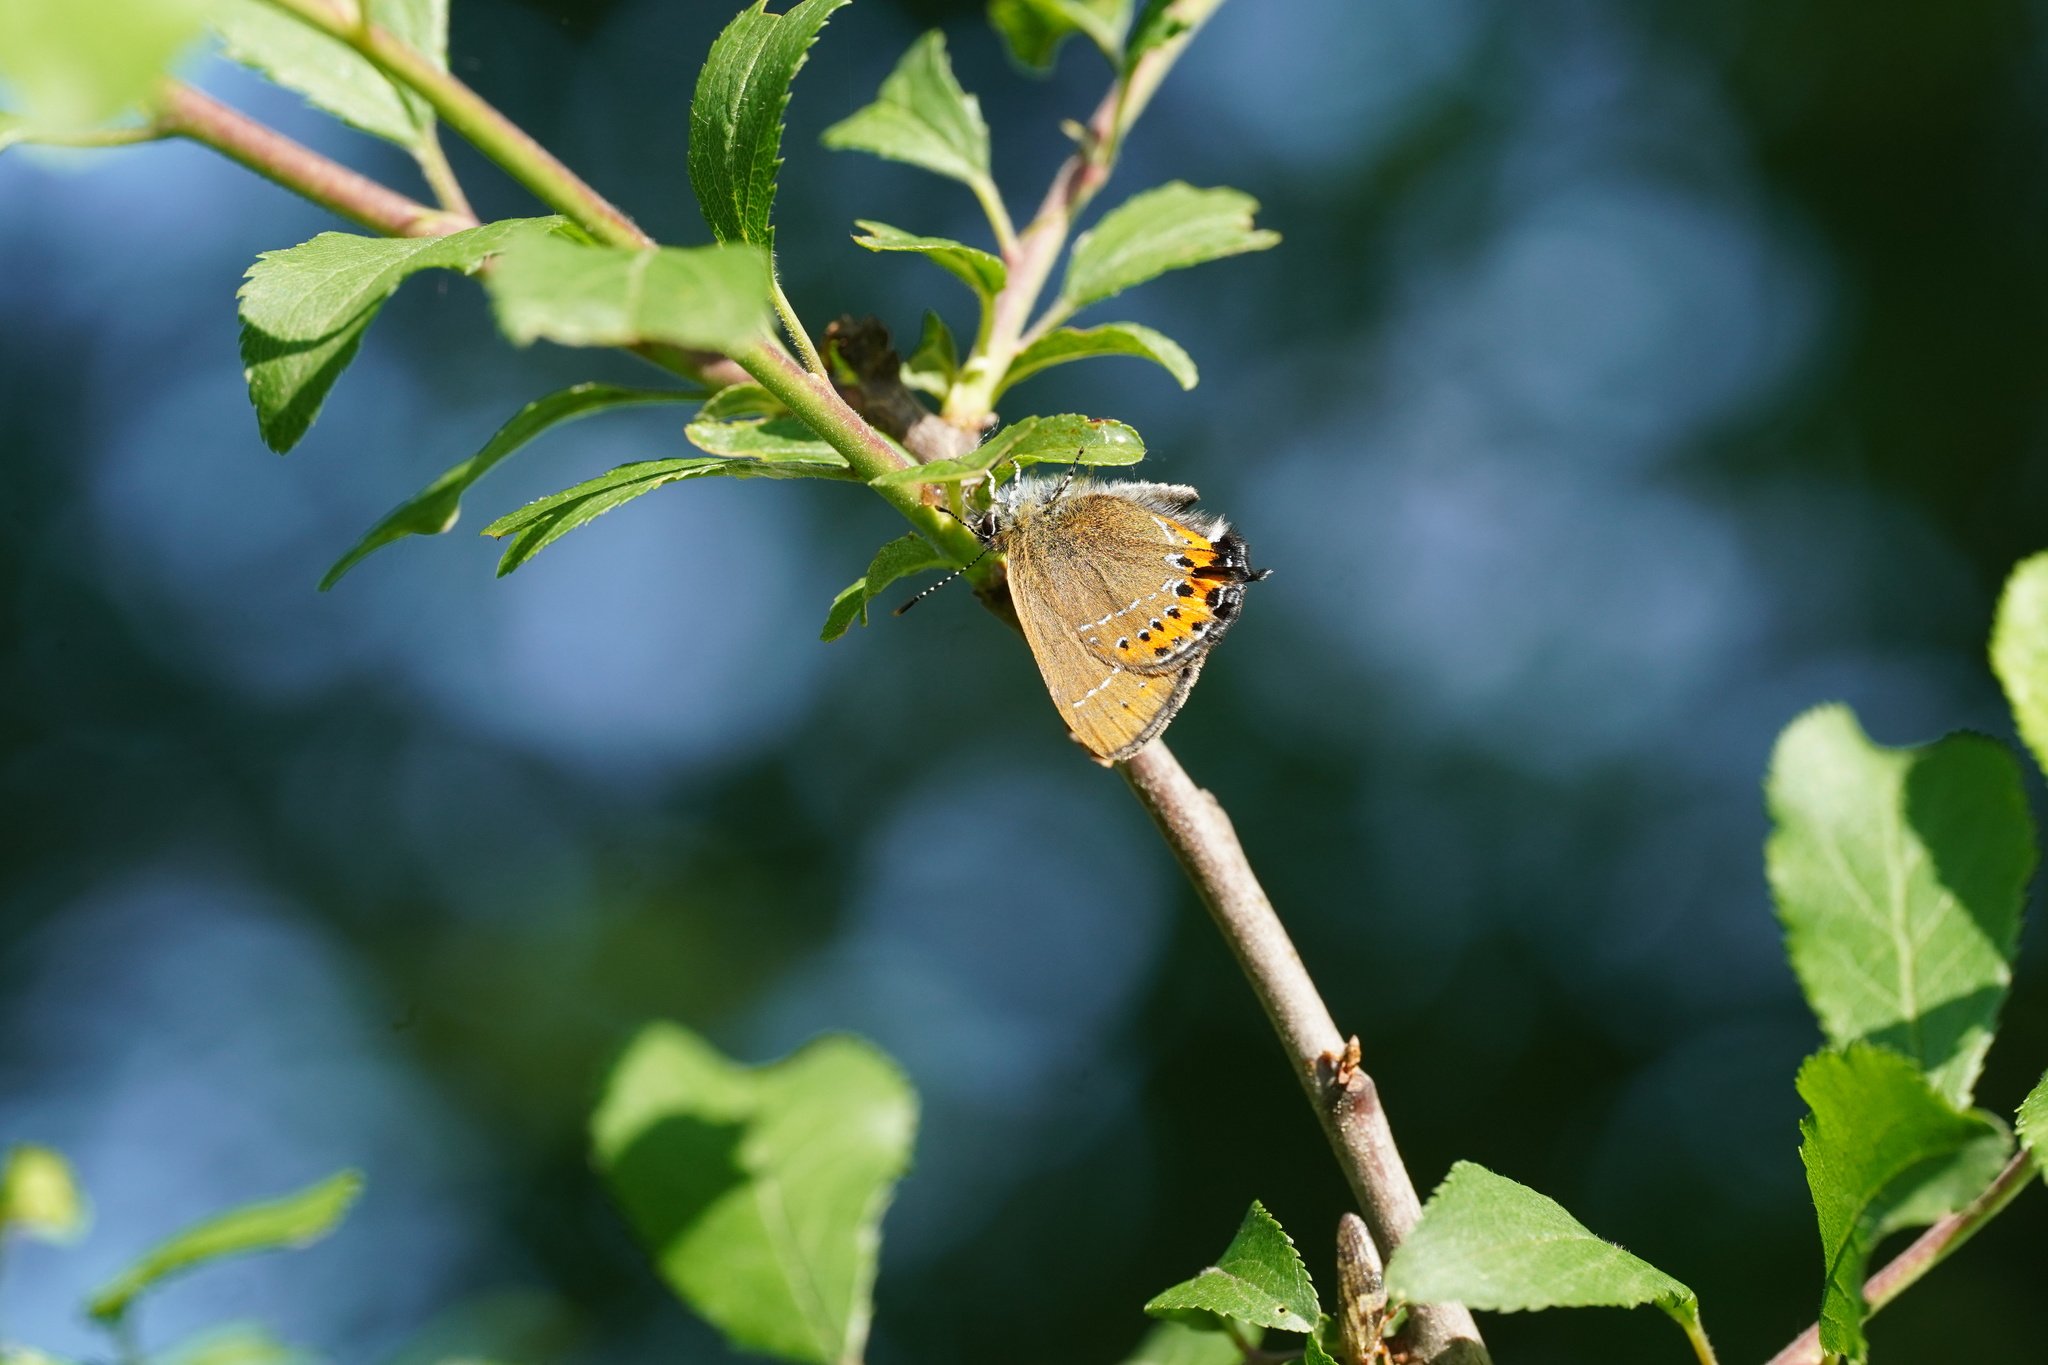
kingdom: Animalia
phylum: Arthropoda
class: Insecta
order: Lepidoptera
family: Lycaenidae
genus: Fixsenia
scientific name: Fixsenia pruni
